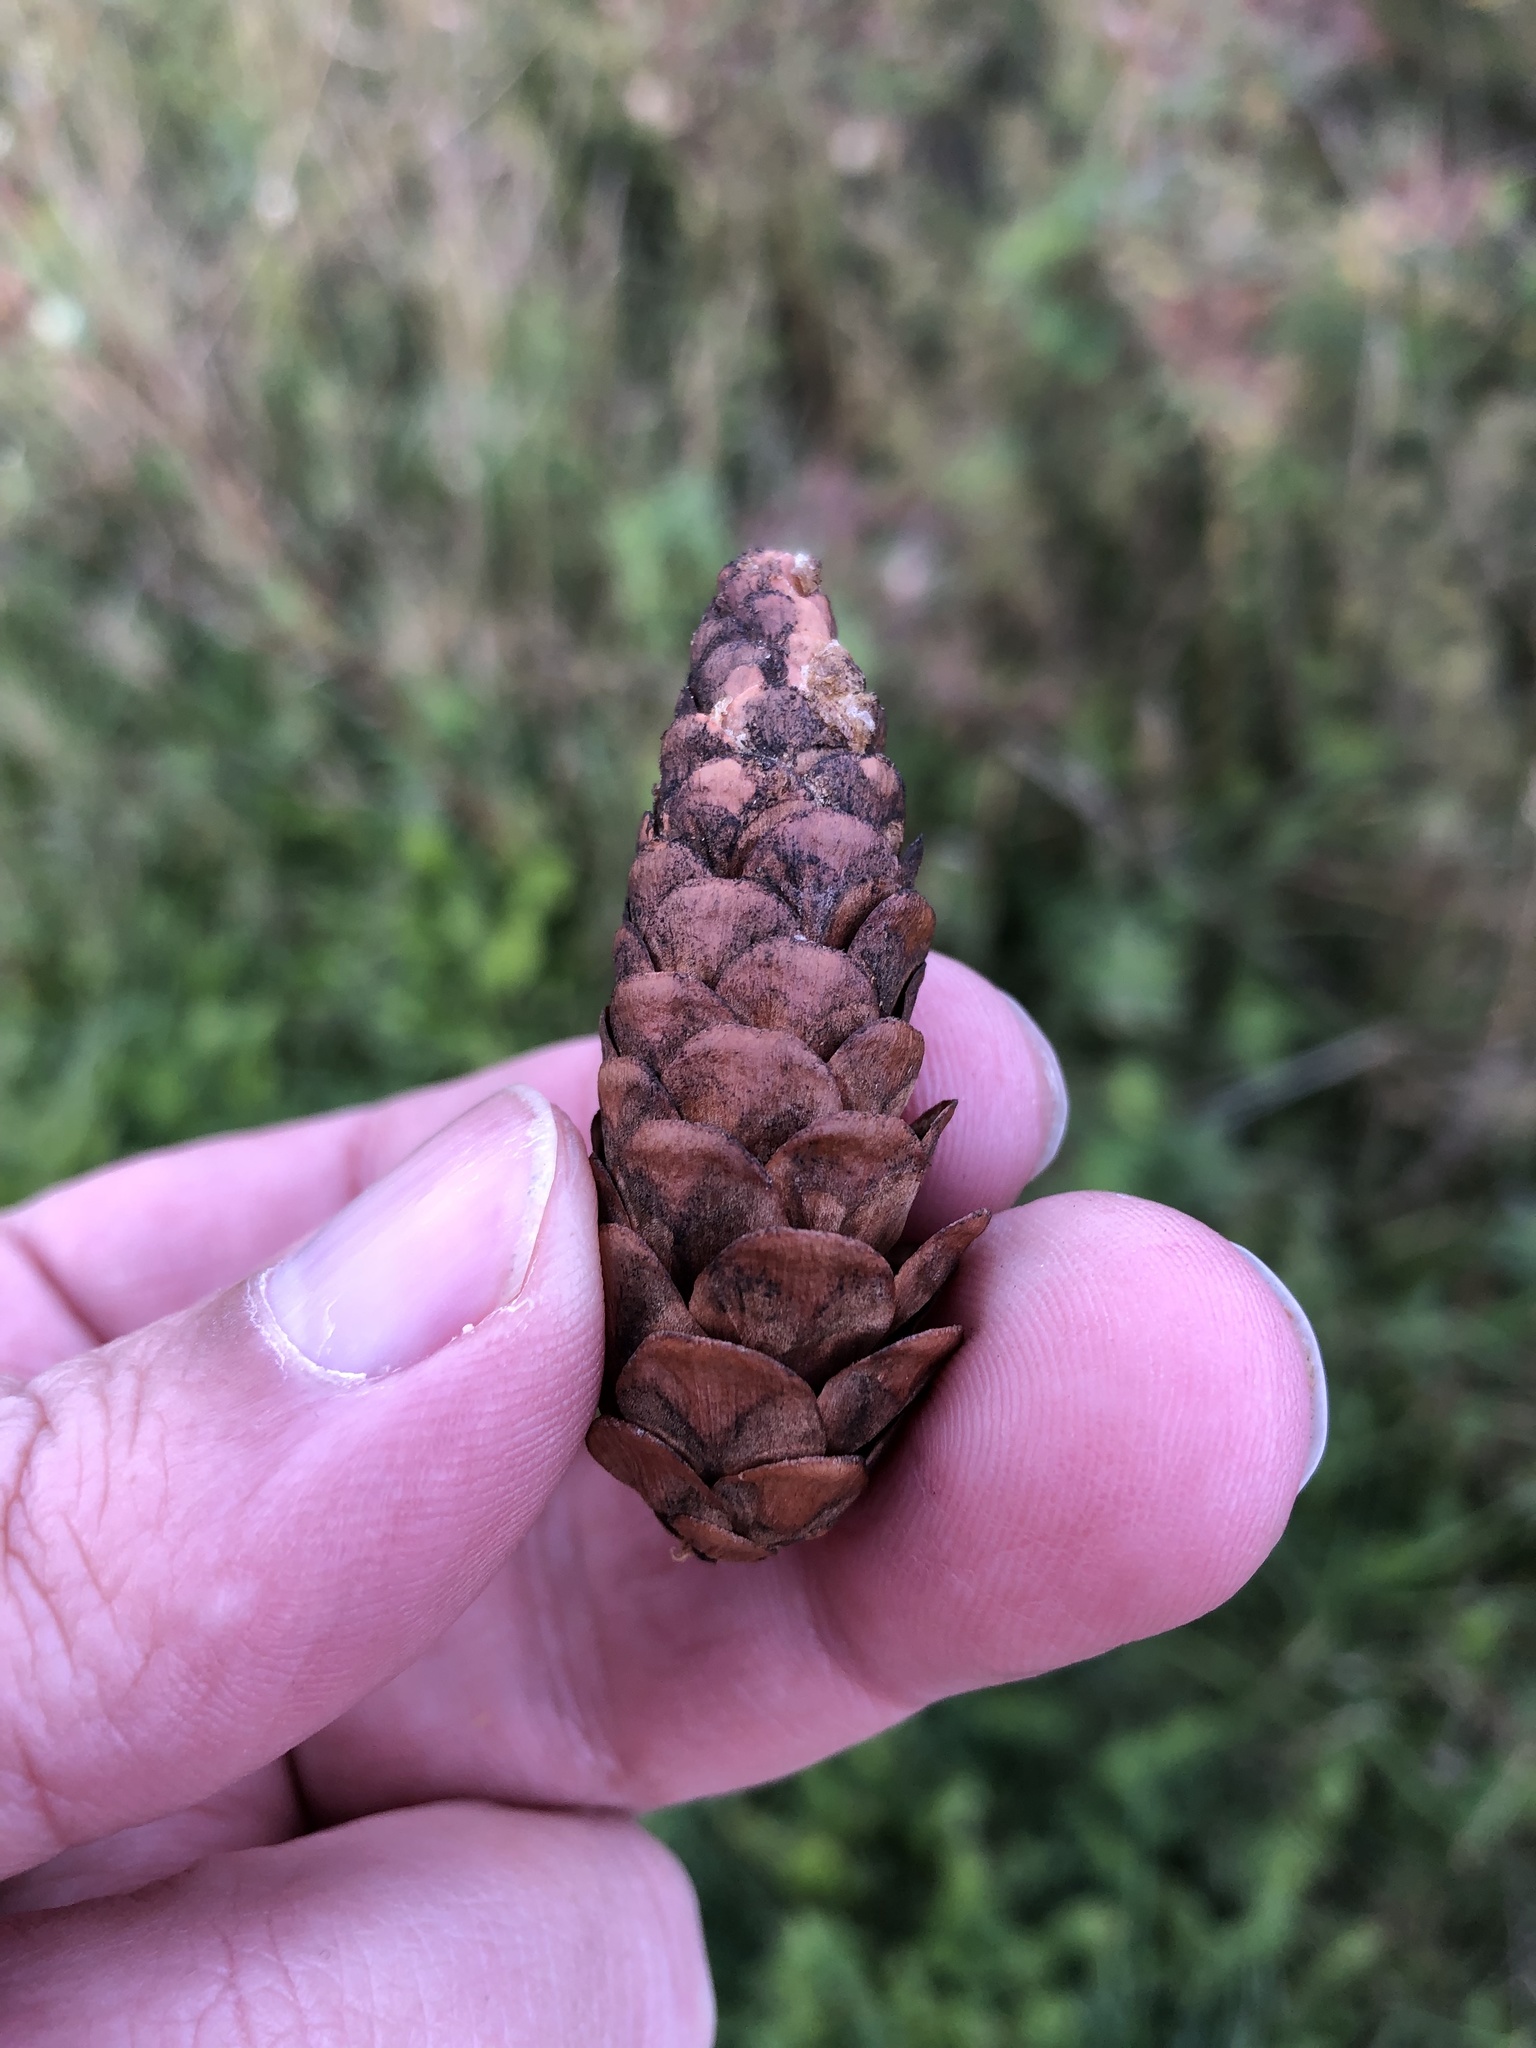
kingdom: Plantae
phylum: Tracheophyta
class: Pinopsida
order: Pinales
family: Pinaceae
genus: Picea
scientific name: Picea glauca
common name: White spruce
